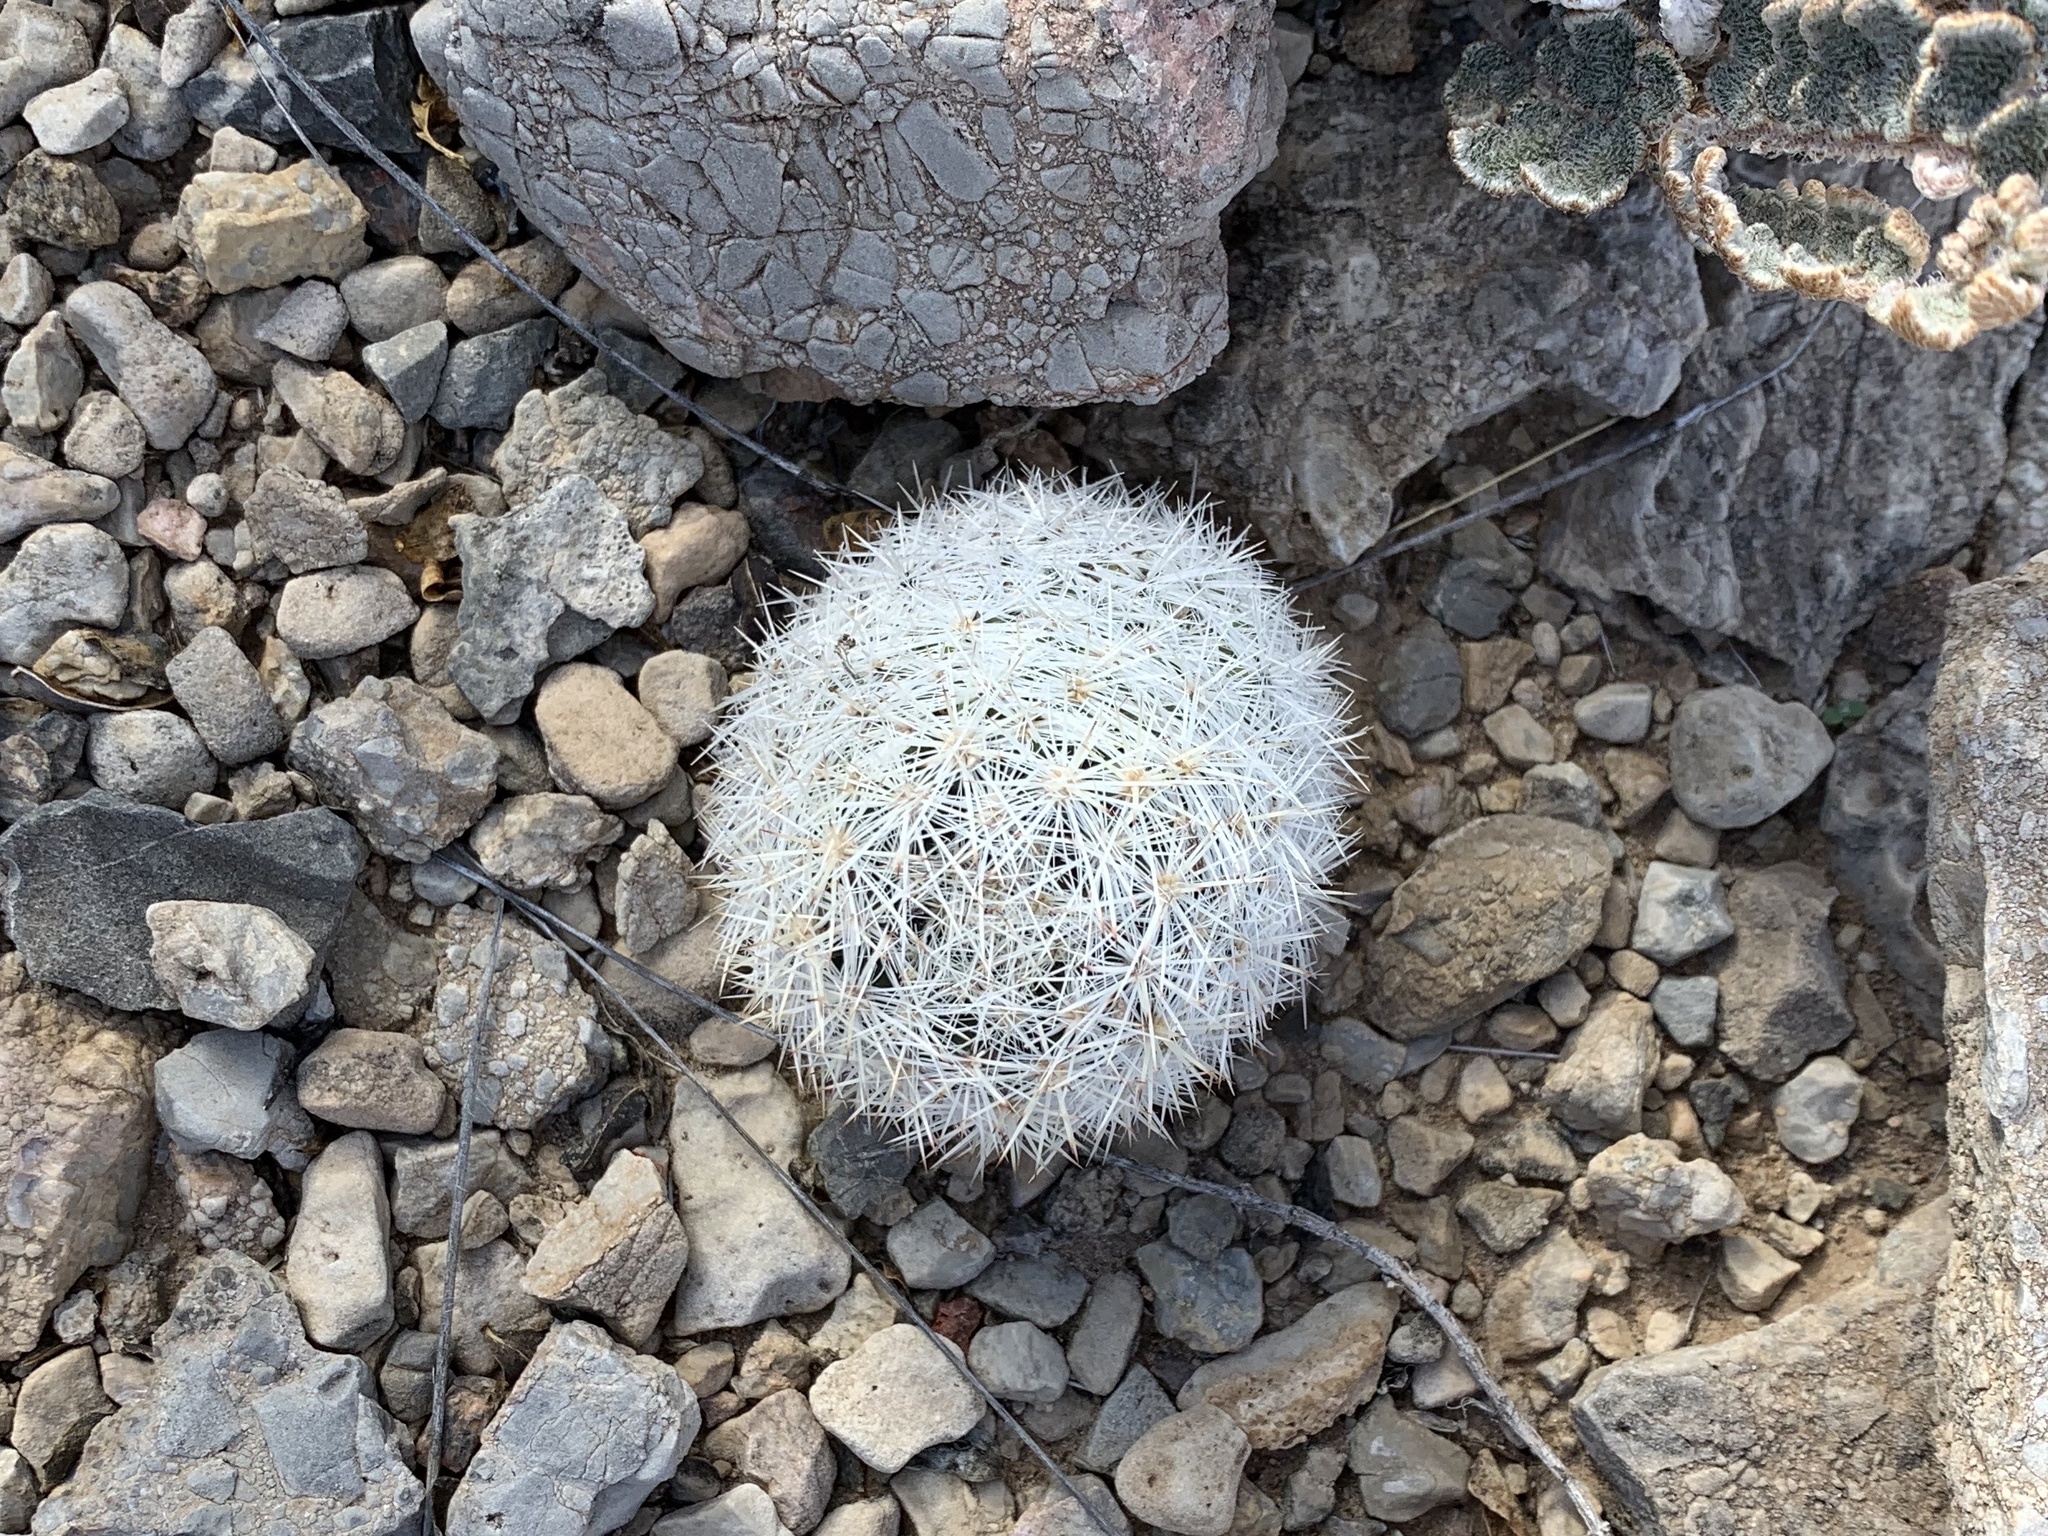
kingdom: Plantae
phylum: Tracheophyta
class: Magnoliopsida
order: Caryophyllales
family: Cactaceae
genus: Pelecyphora
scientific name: Pelecyphora sneedii
